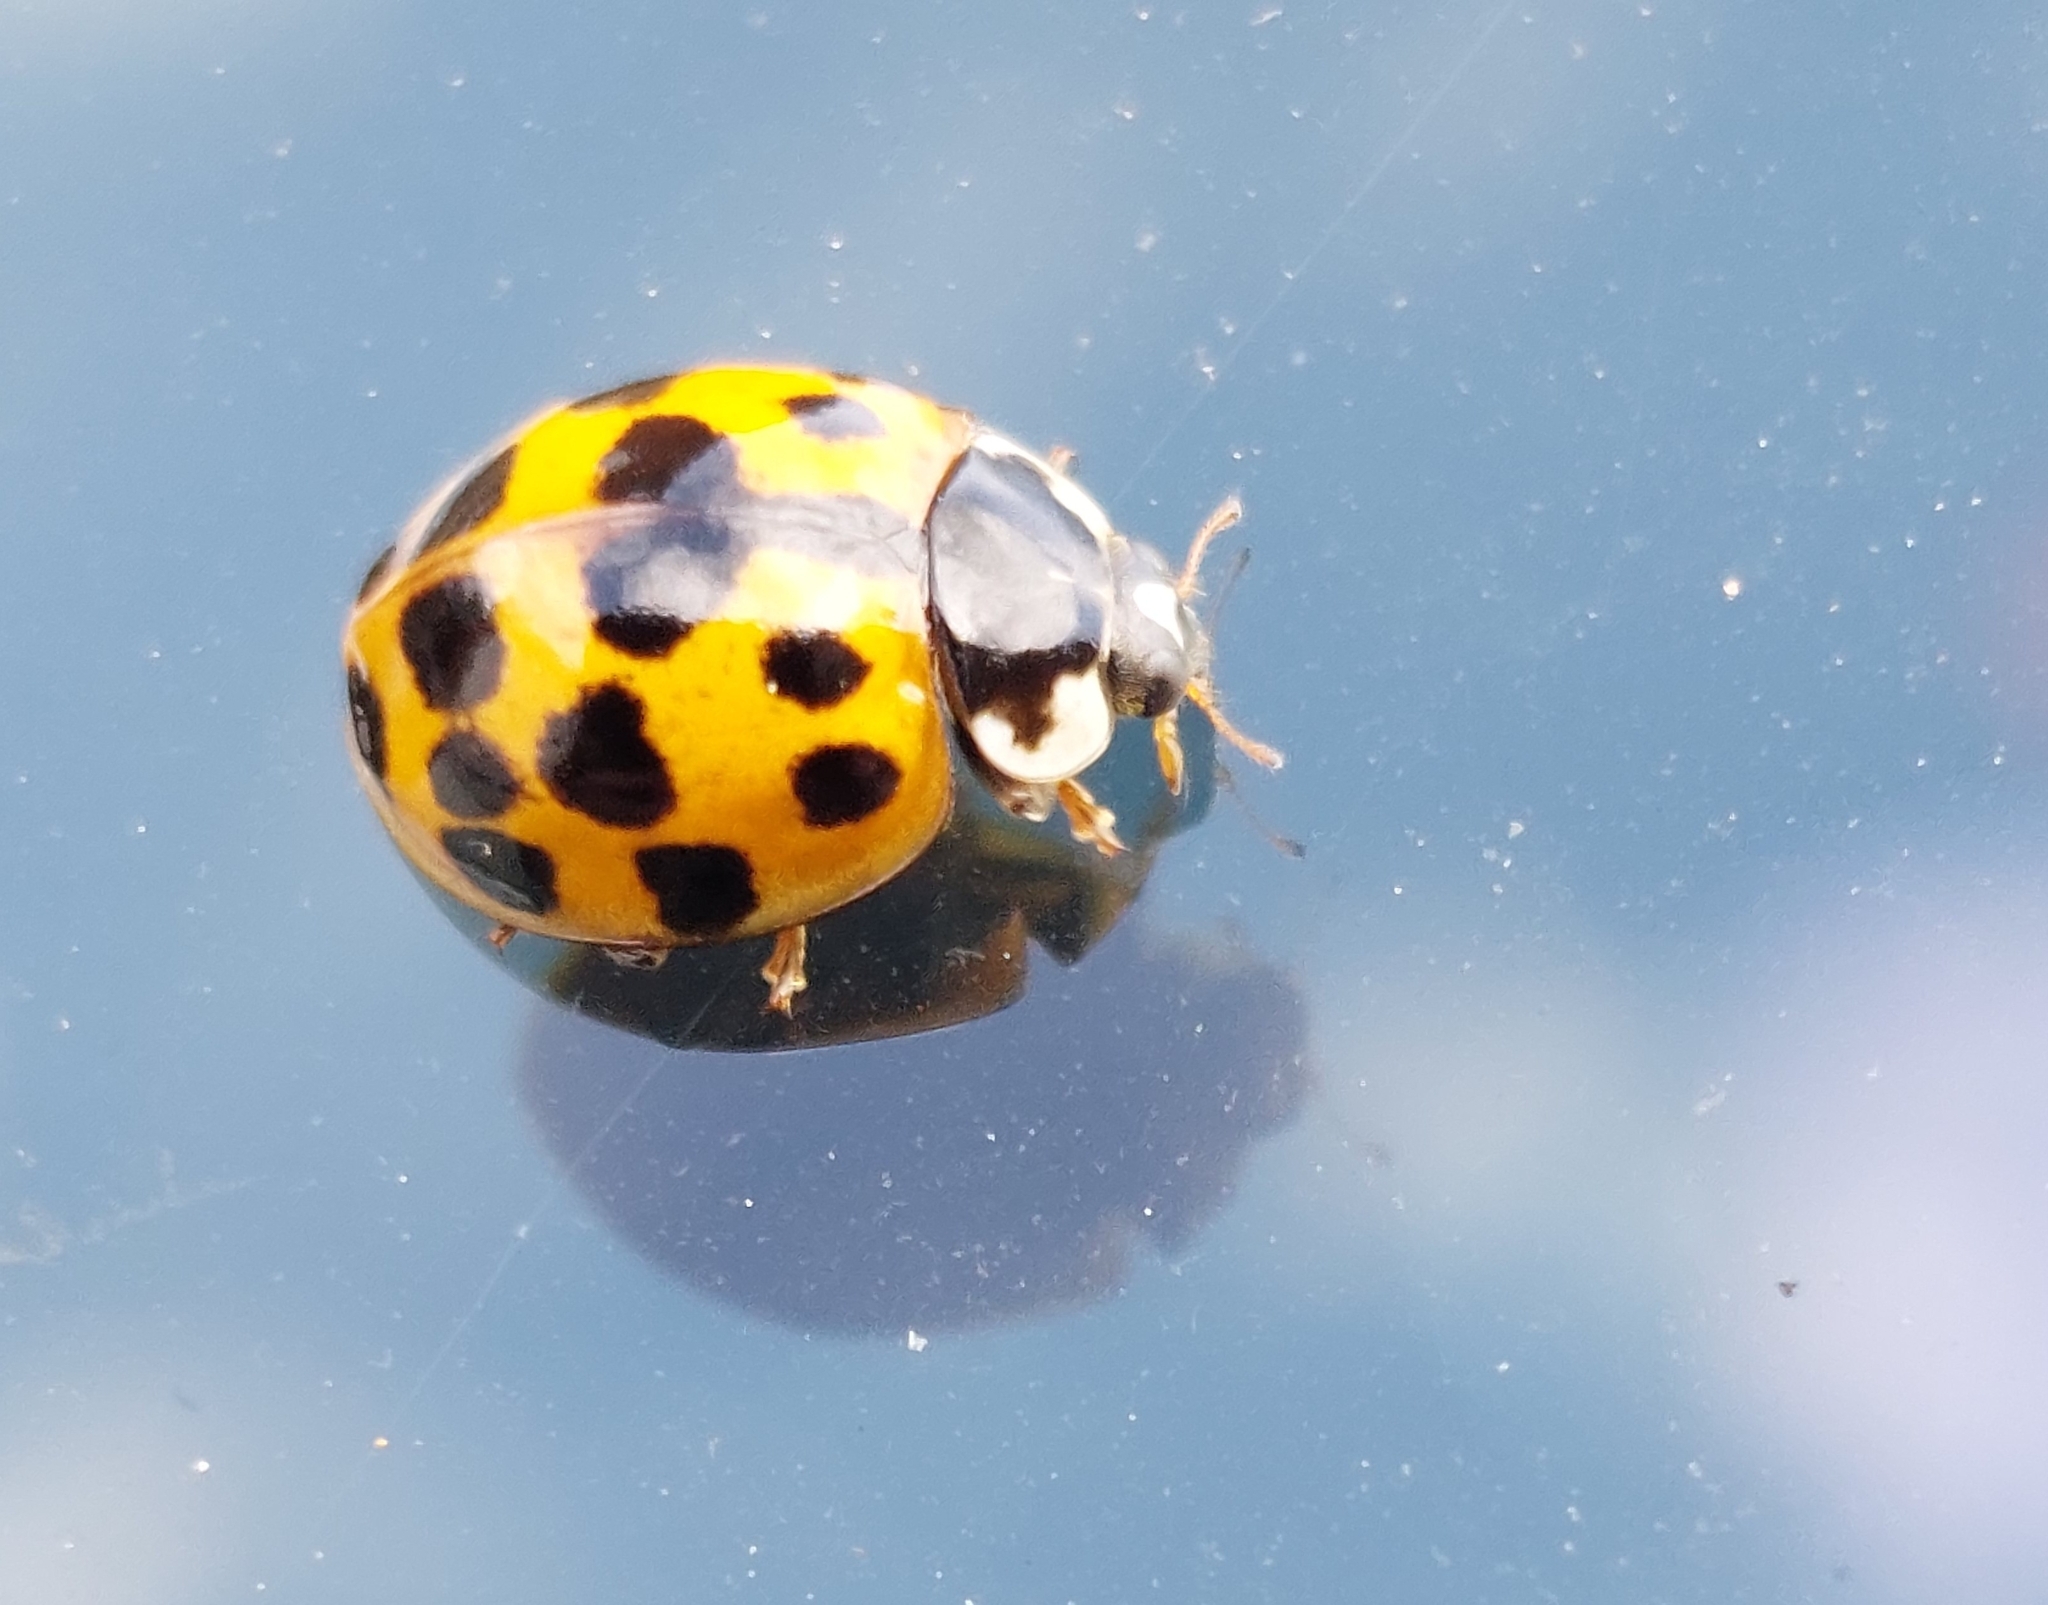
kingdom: Animalia
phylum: Arthropoda
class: Insecta
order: Coleoptera
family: Coccinellidae
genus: Harmonia
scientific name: Harmonia axyridis
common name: Harlequin ladybird
